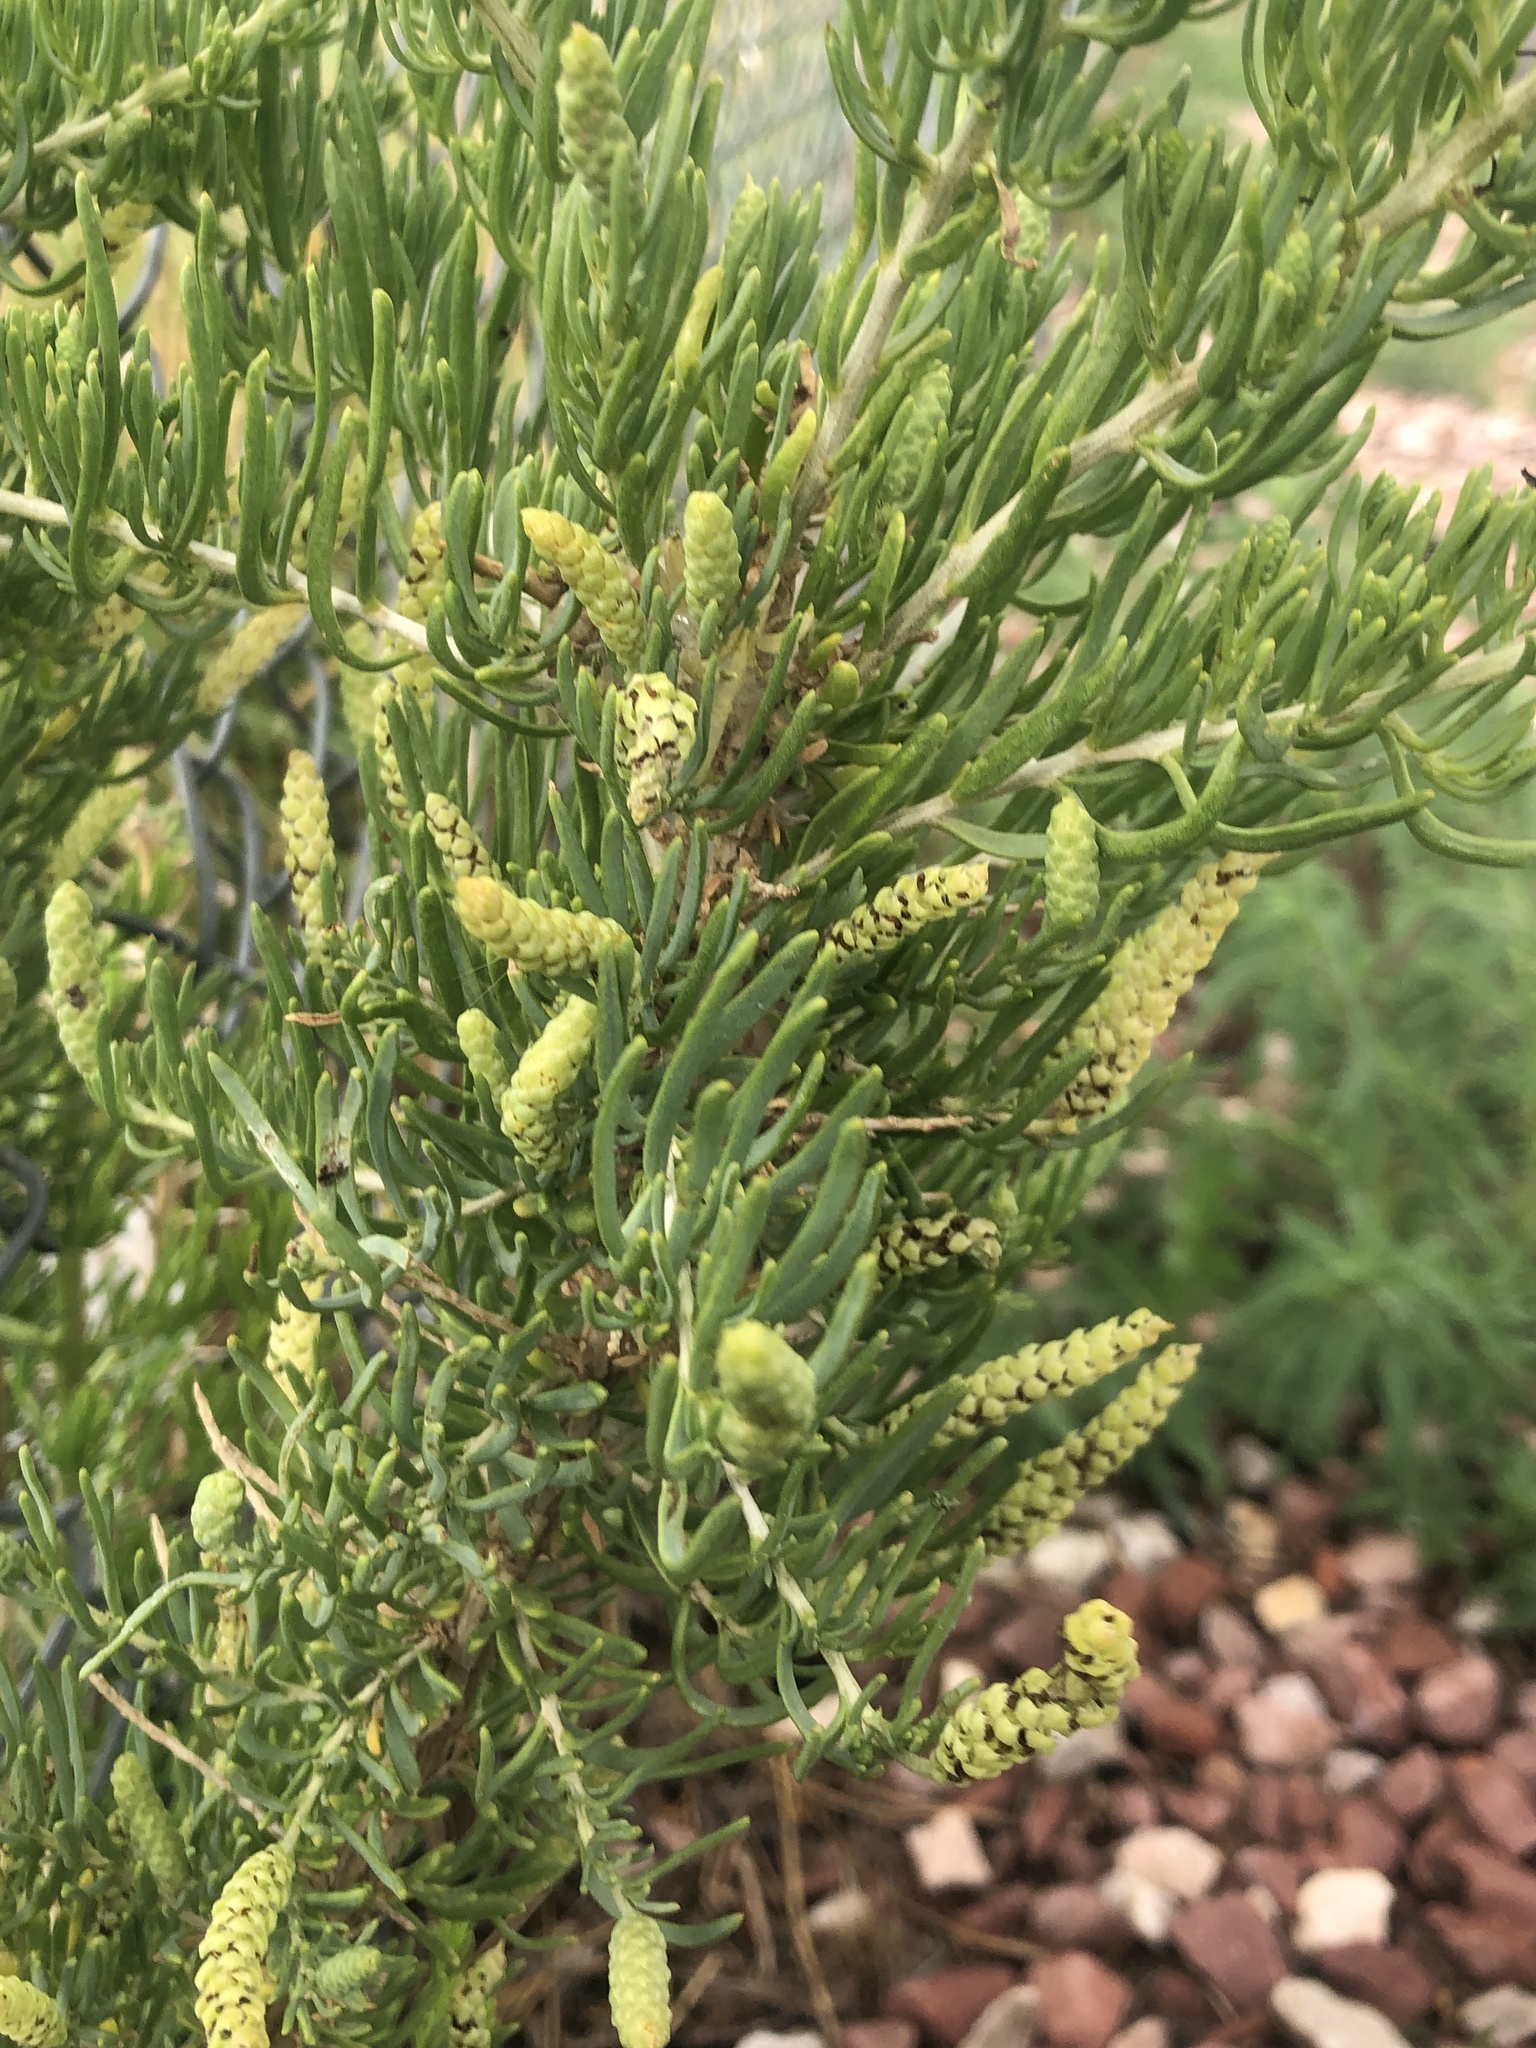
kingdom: Plantae
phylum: Tracheophyta
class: Magnoliopsida
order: Caryophyllales
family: Sarcobataceae
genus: Sarcobatus
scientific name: Sarcobatus vermiculatus
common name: Greasewood
